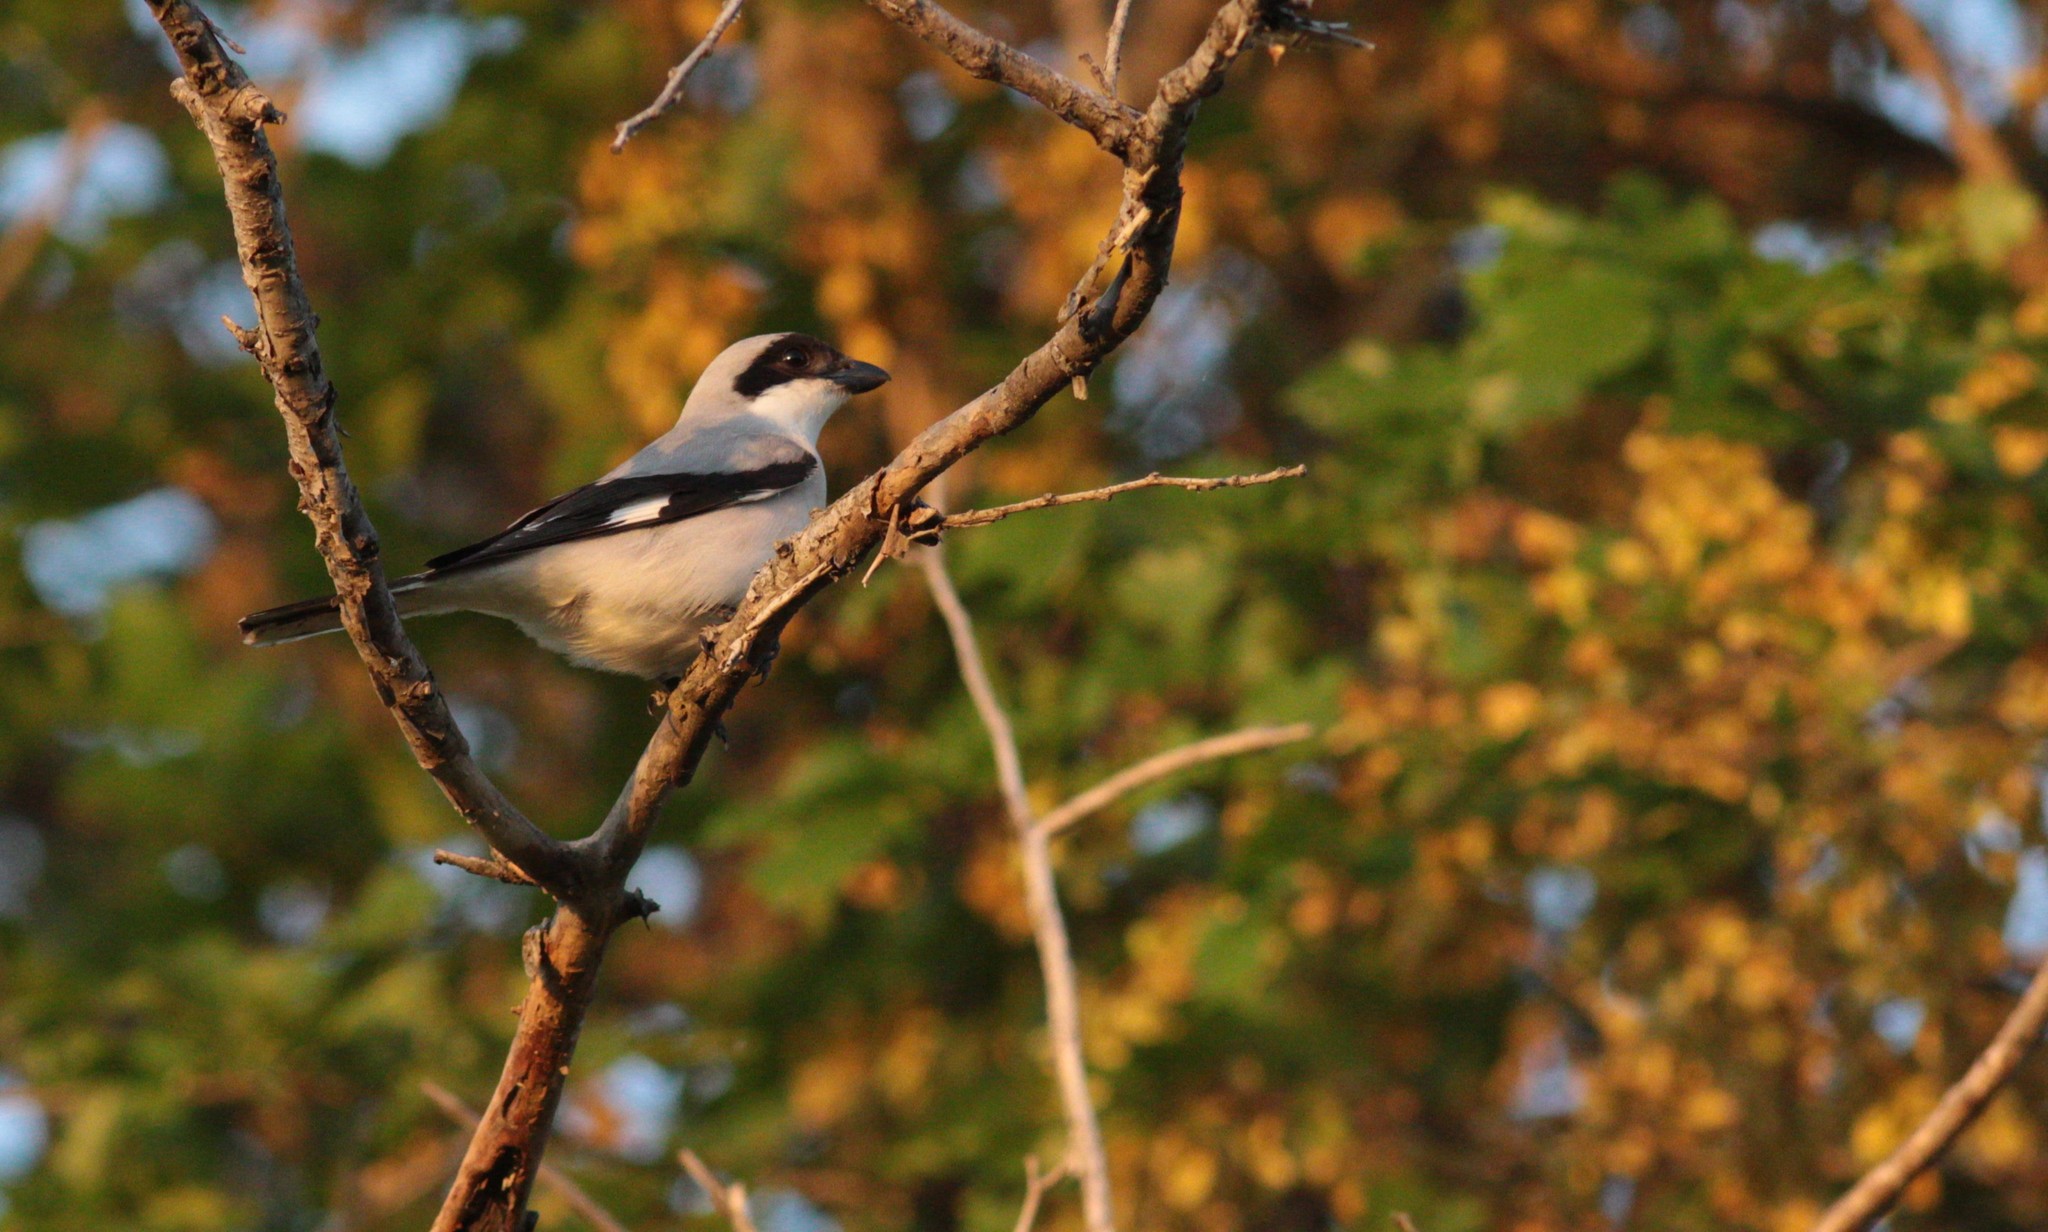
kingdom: Animalia
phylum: Chordata
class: Aves
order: Passeriformes
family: Laniidae
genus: Lanius
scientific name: Lanius minor
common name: Lesser grey shrike
